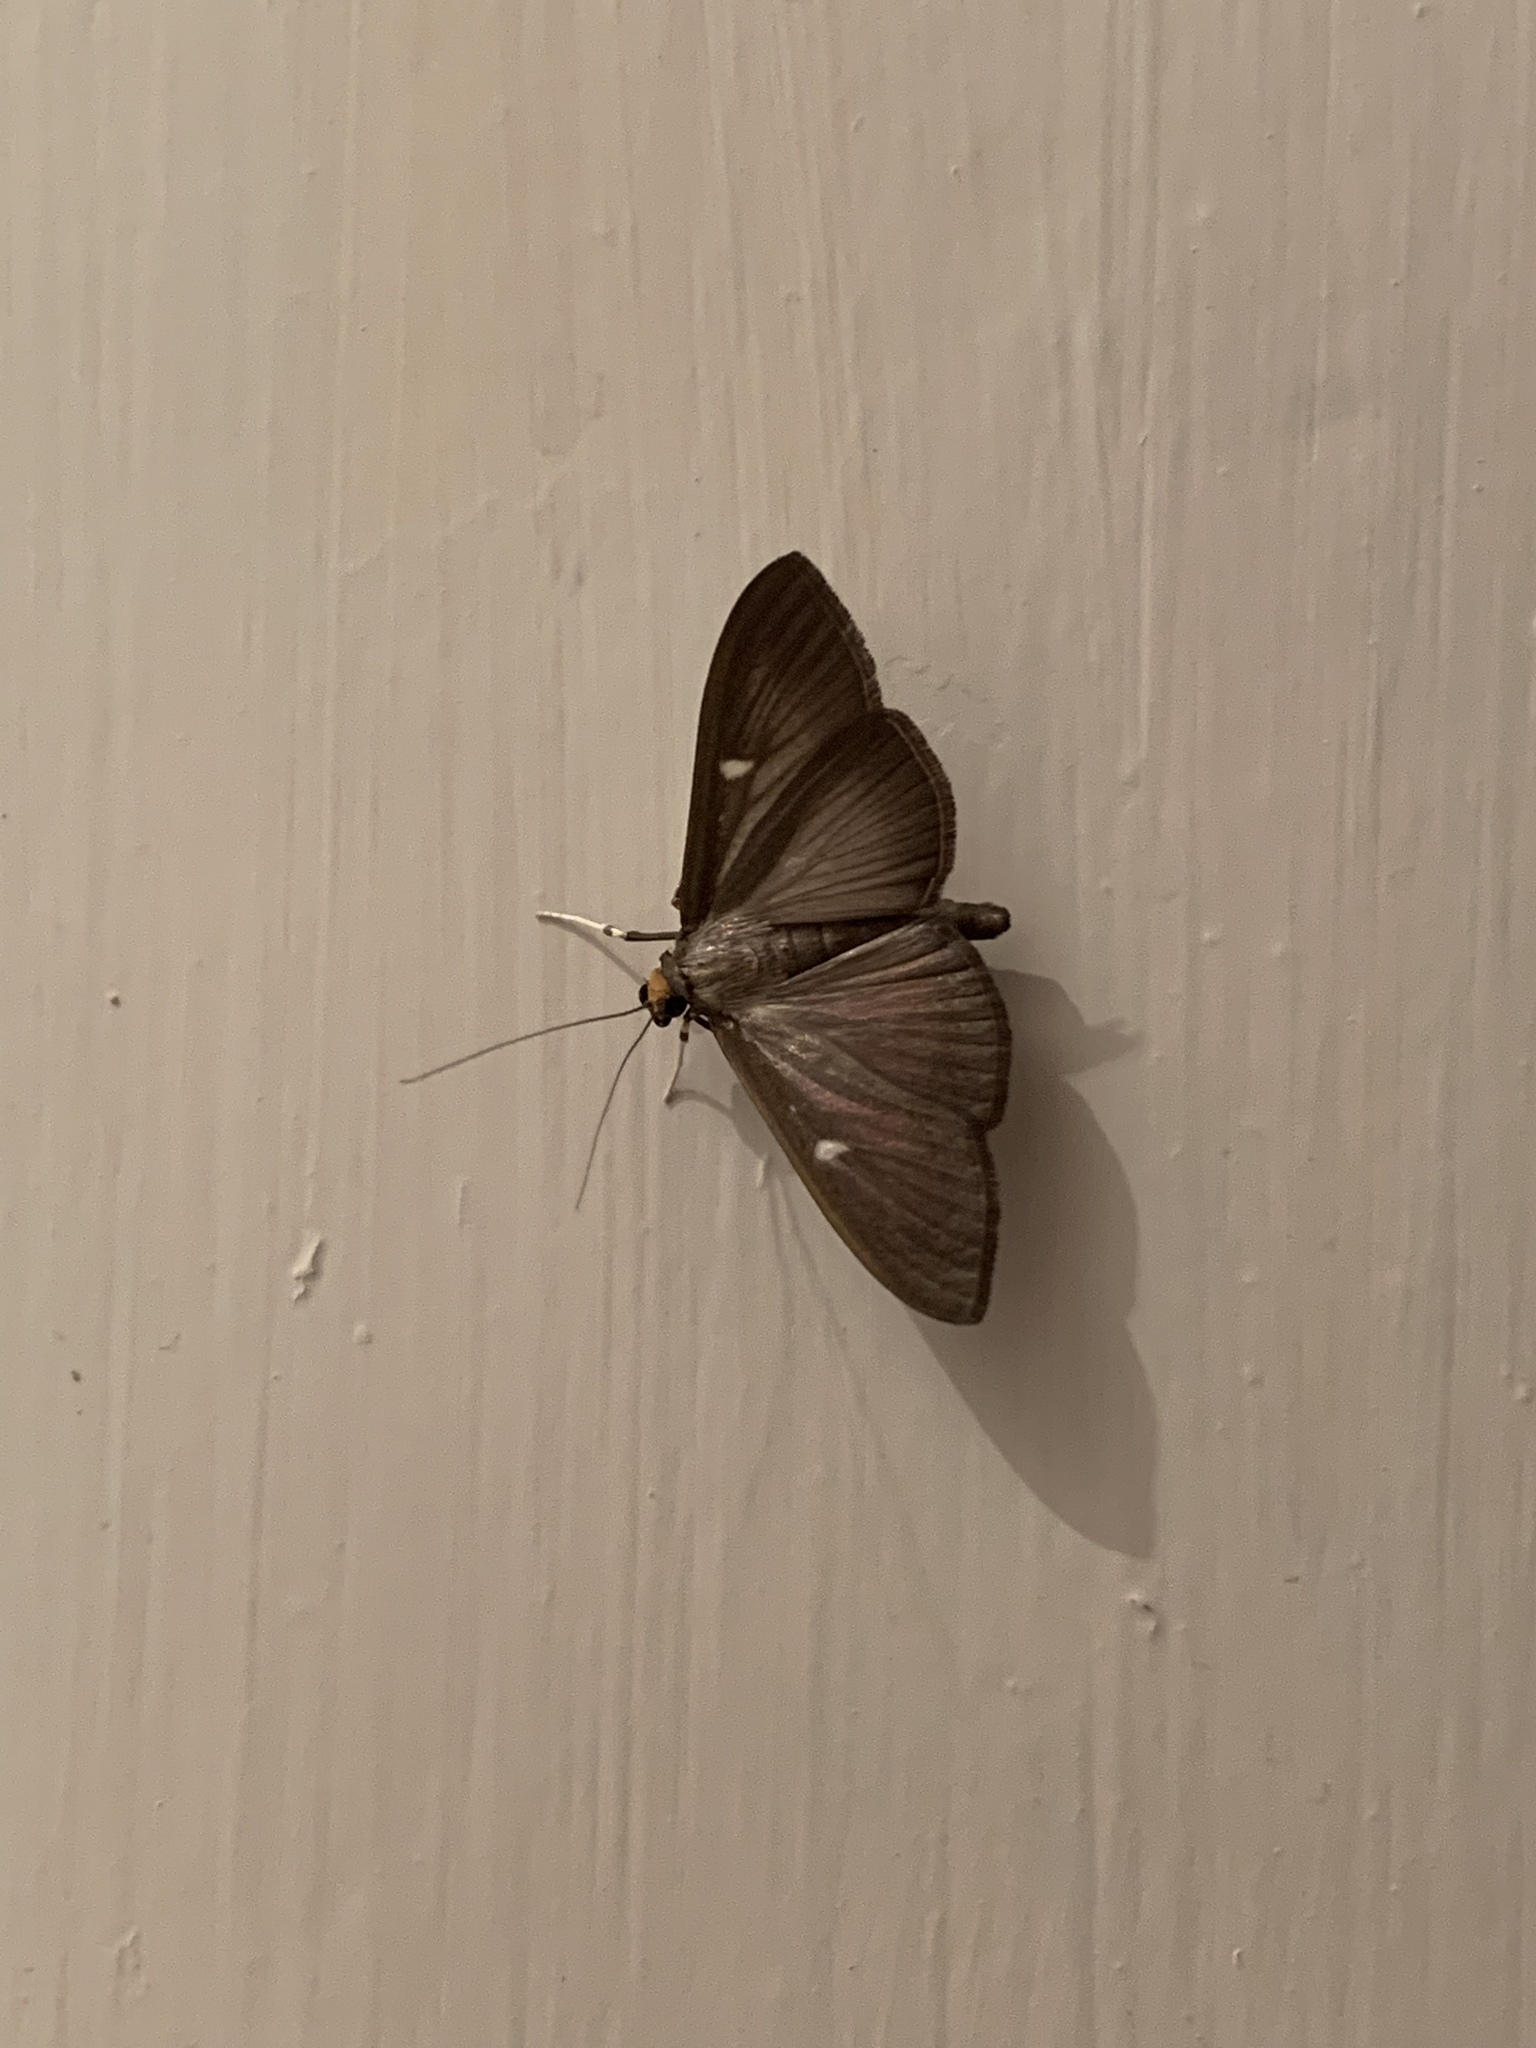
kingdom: Animalia
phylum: Arthropoda
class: Insecta
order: Lepidoptera
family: Crambidae
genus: Cydalima
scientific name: Cydalima perspectalis
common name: Box tree moth
